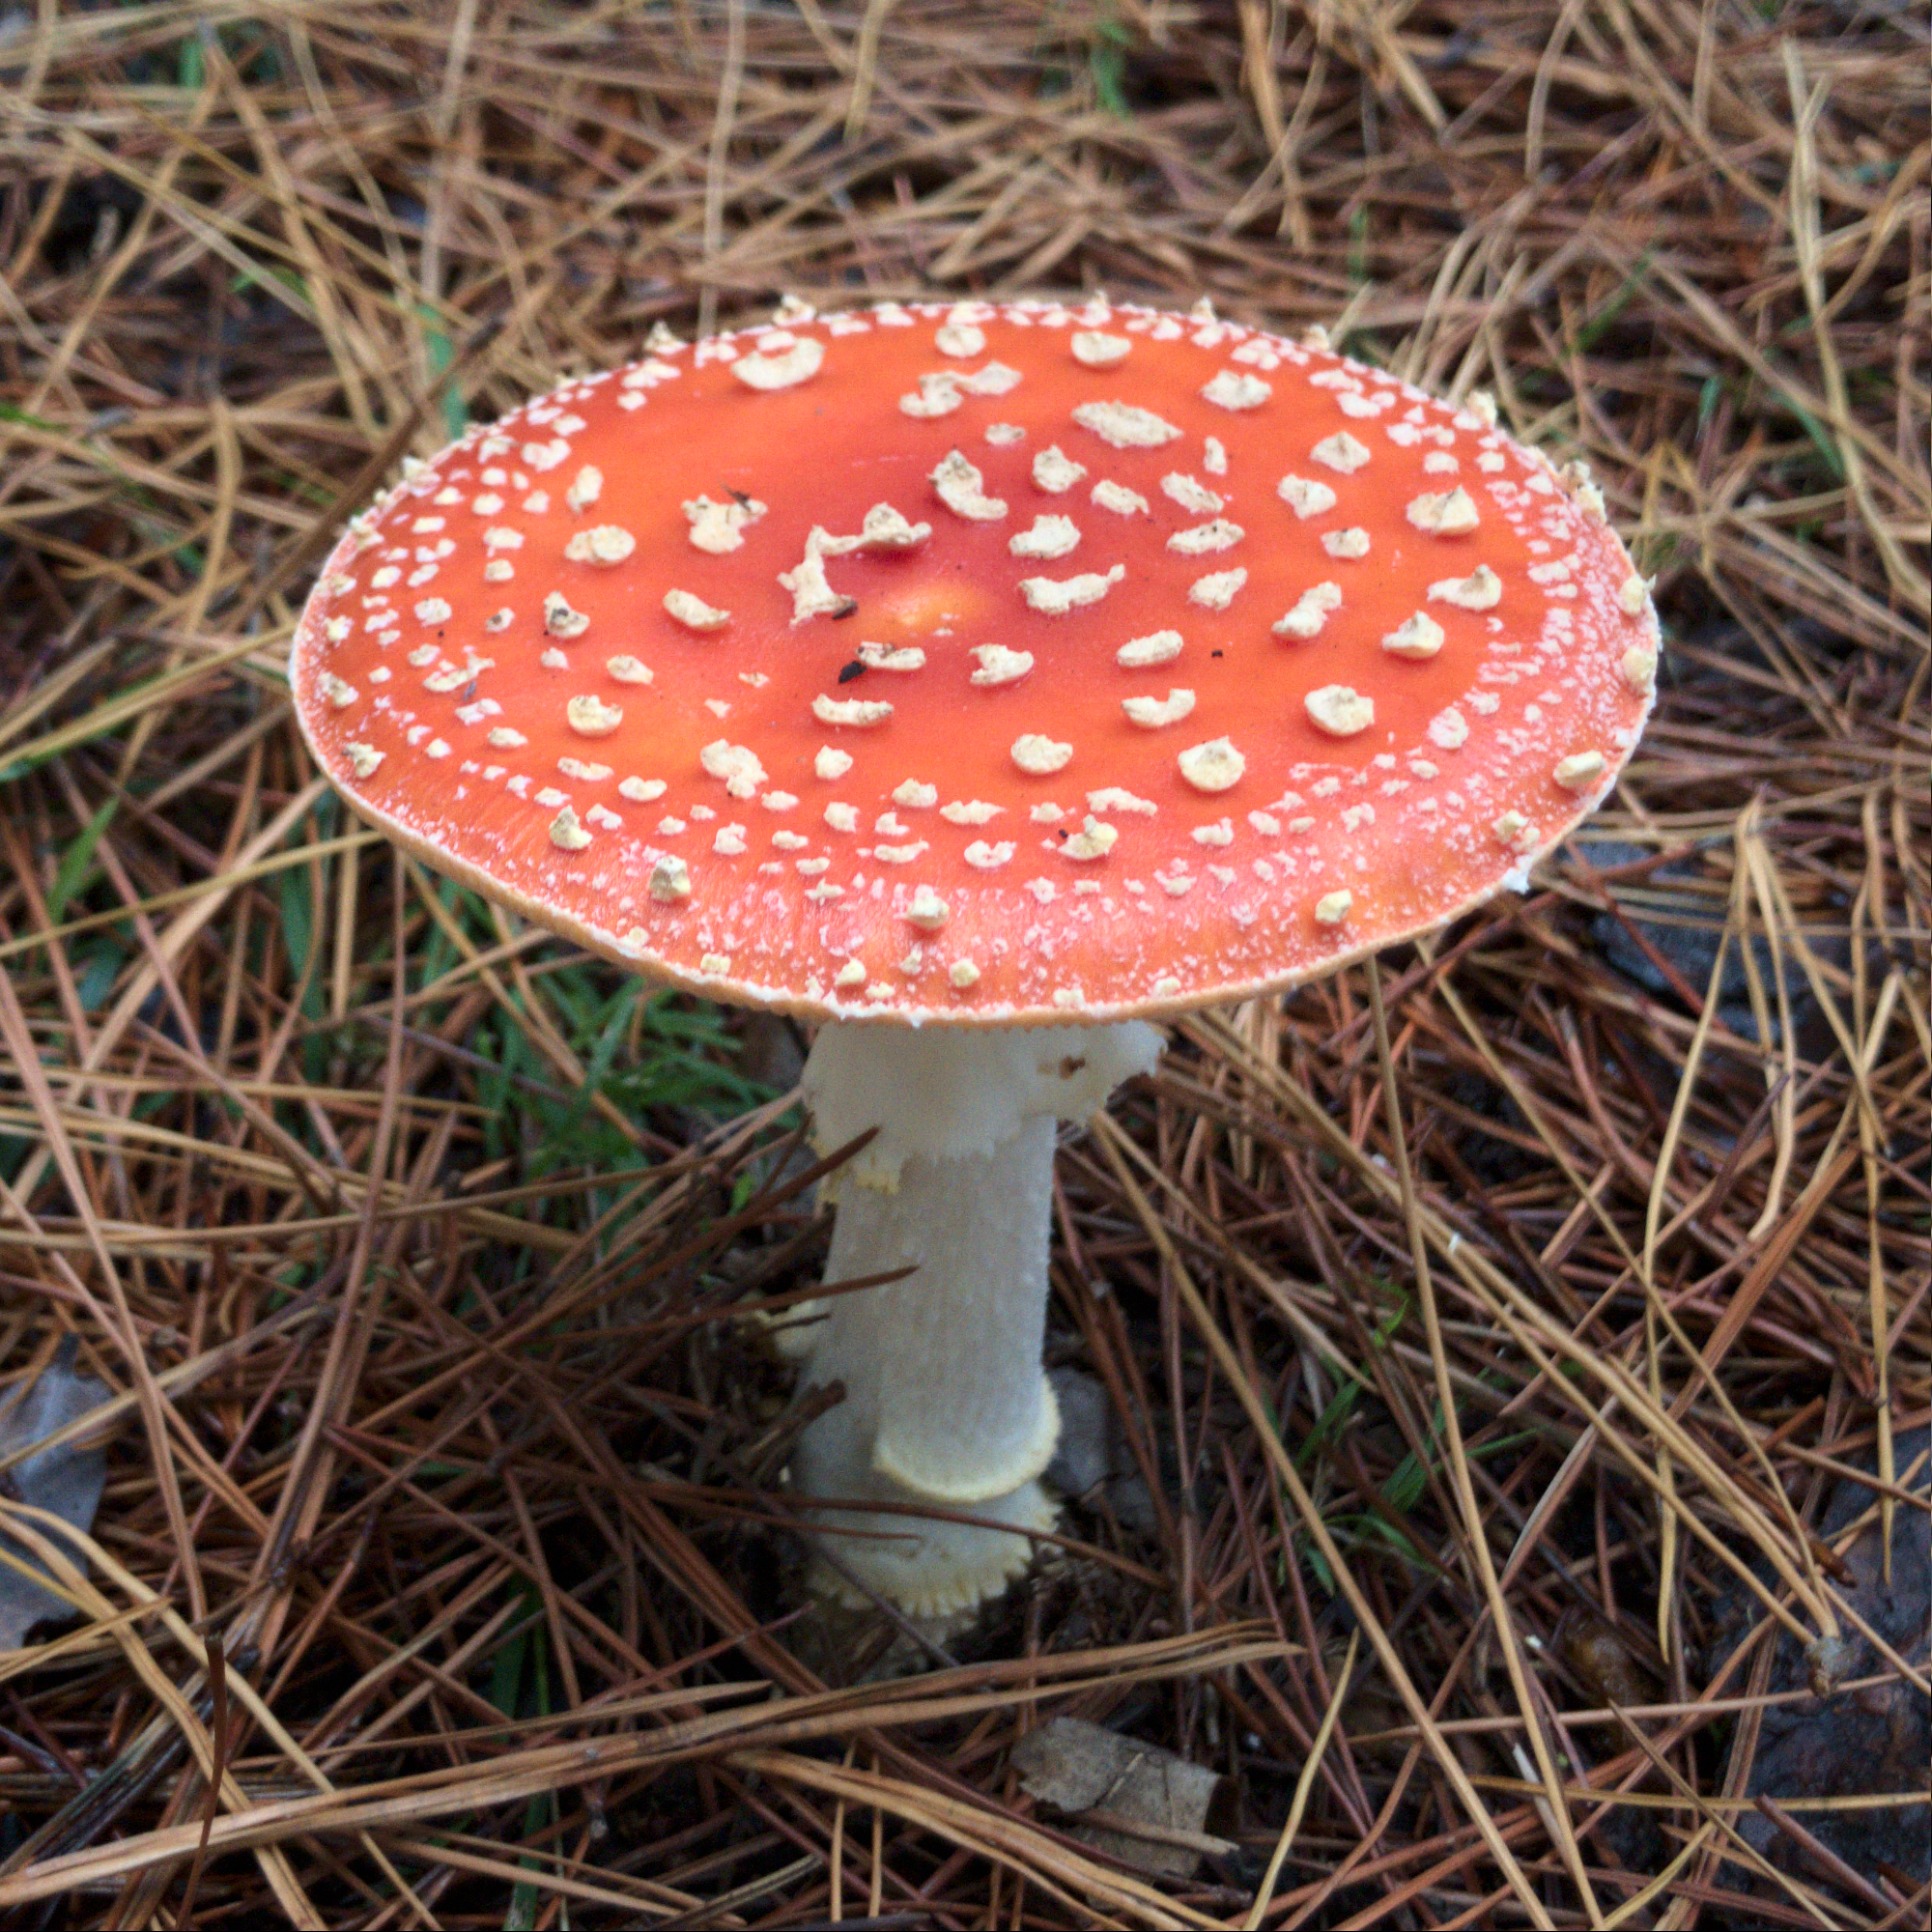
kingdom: Fungi
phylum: Basidiomycota
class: Agaricomycetes
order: Agaricales
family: Amanitaceae
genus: Amanita
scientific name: Amanita muscaria
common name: Fly agaric
